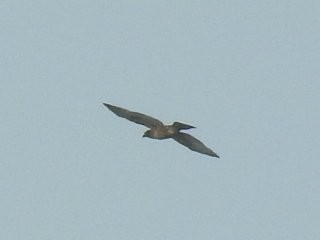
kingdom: Animalia
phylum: Chordata
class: Aves
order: Accipitriformes
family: Accipitridae
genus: Butastur
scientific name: Butastur indicus
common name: Grey-faced buzzard
